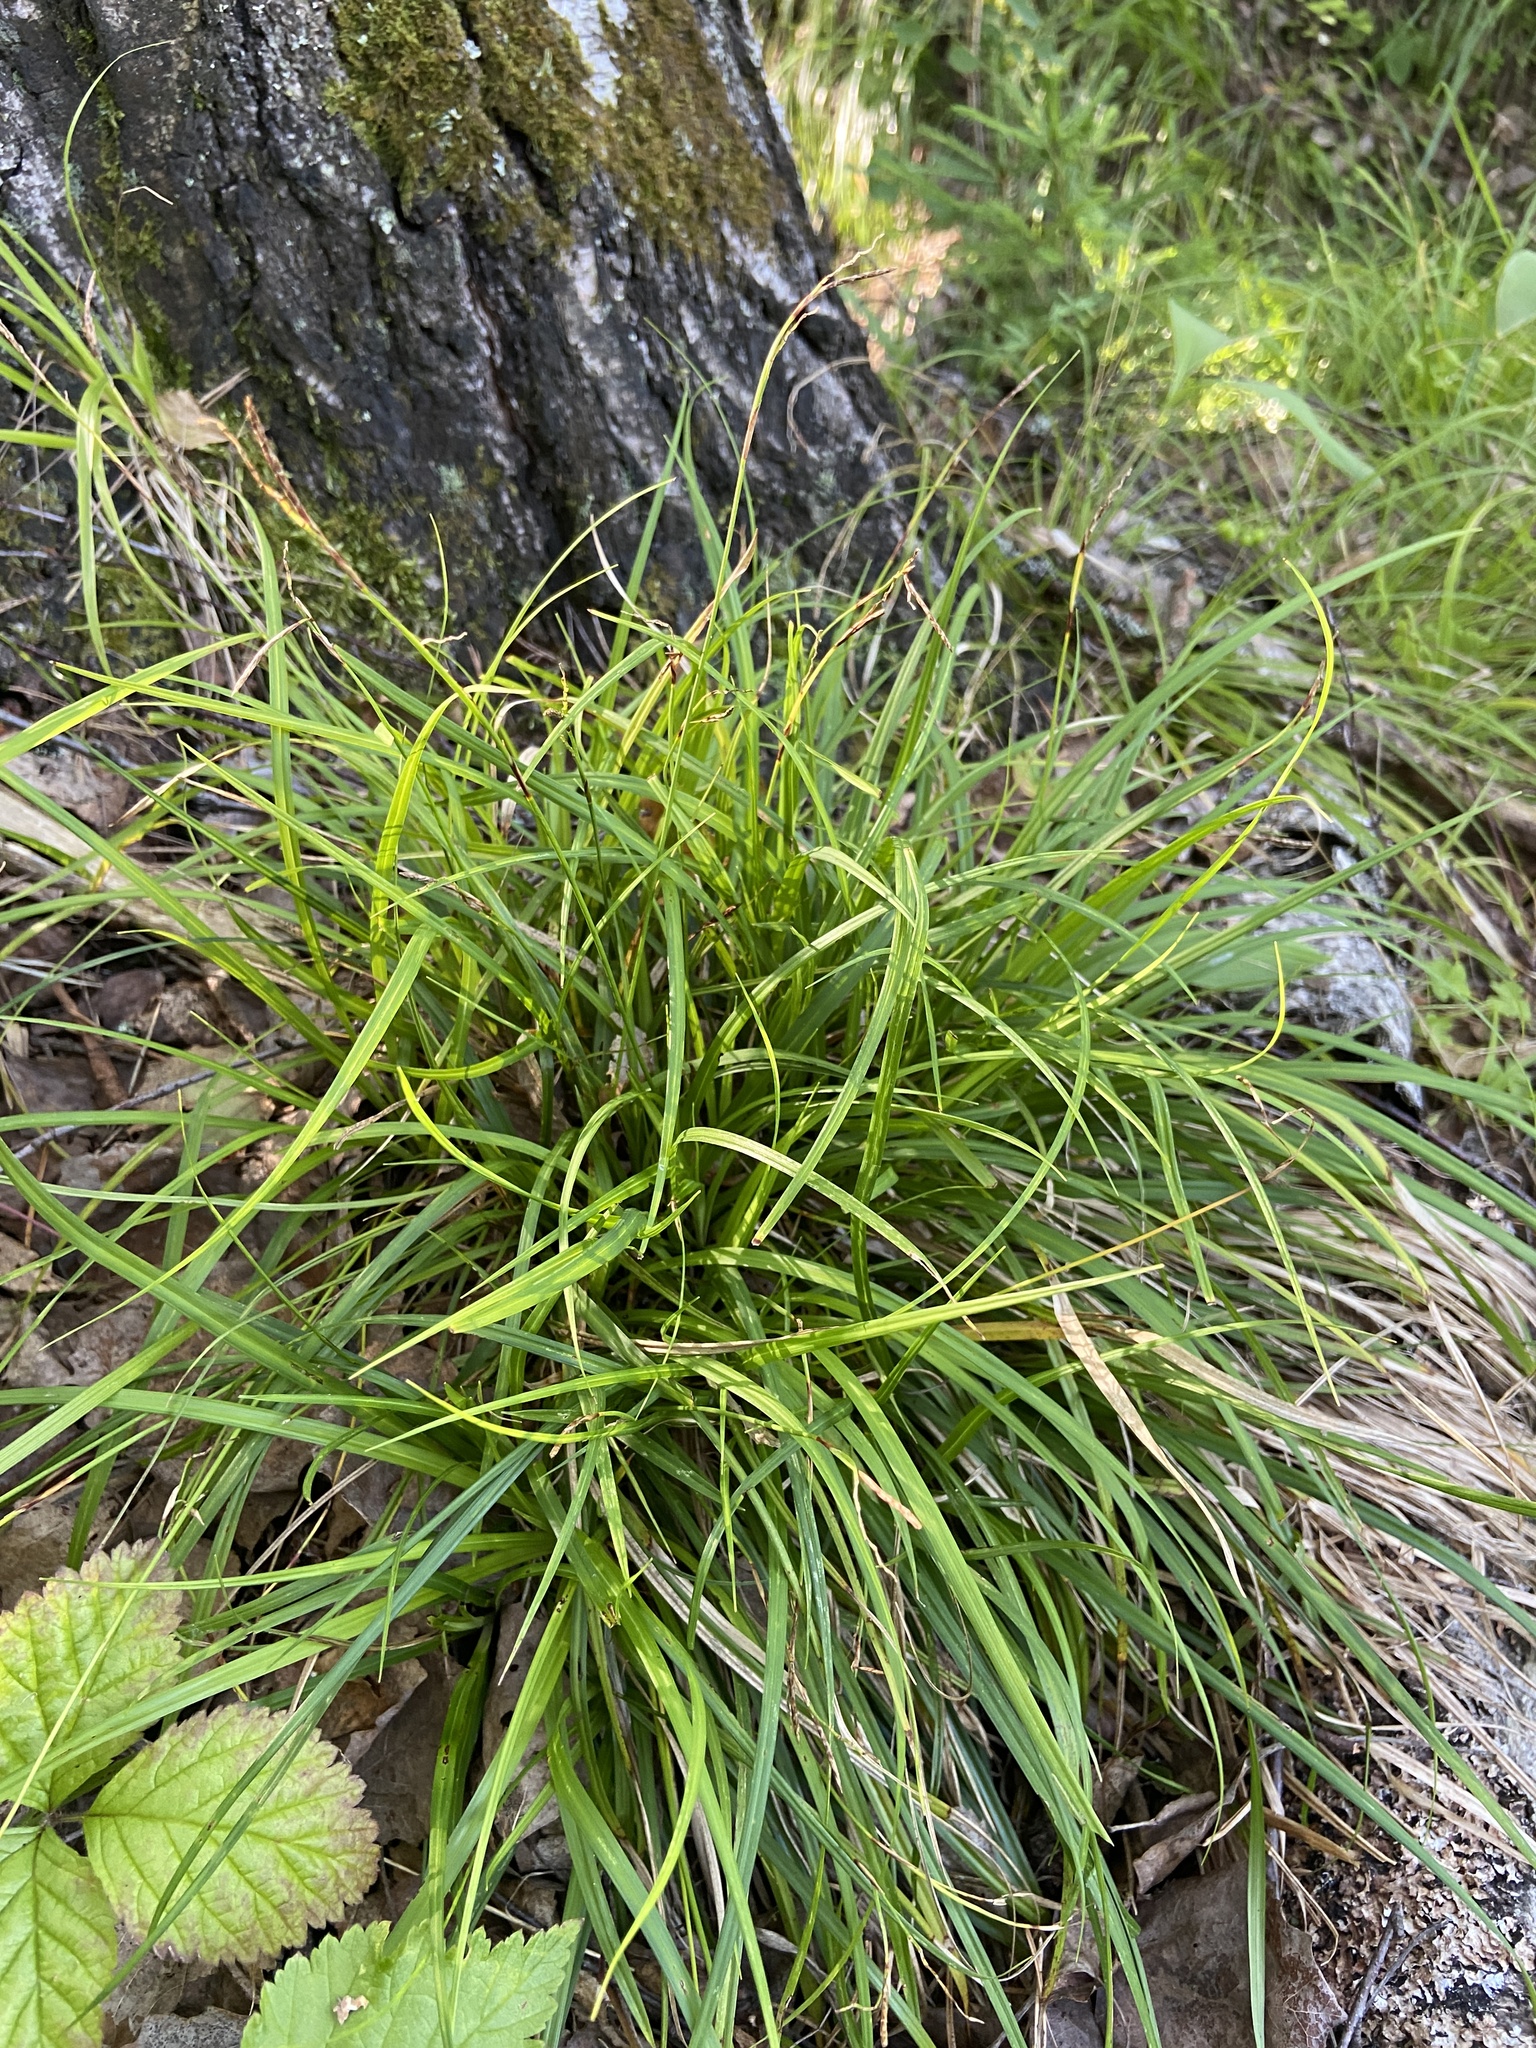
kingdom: Plantae
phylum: Tracheophyta
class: Liliopsida
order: Poales
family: Cyperaceae
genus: Carex
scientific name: Carex digitata
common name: Fingered sedge
